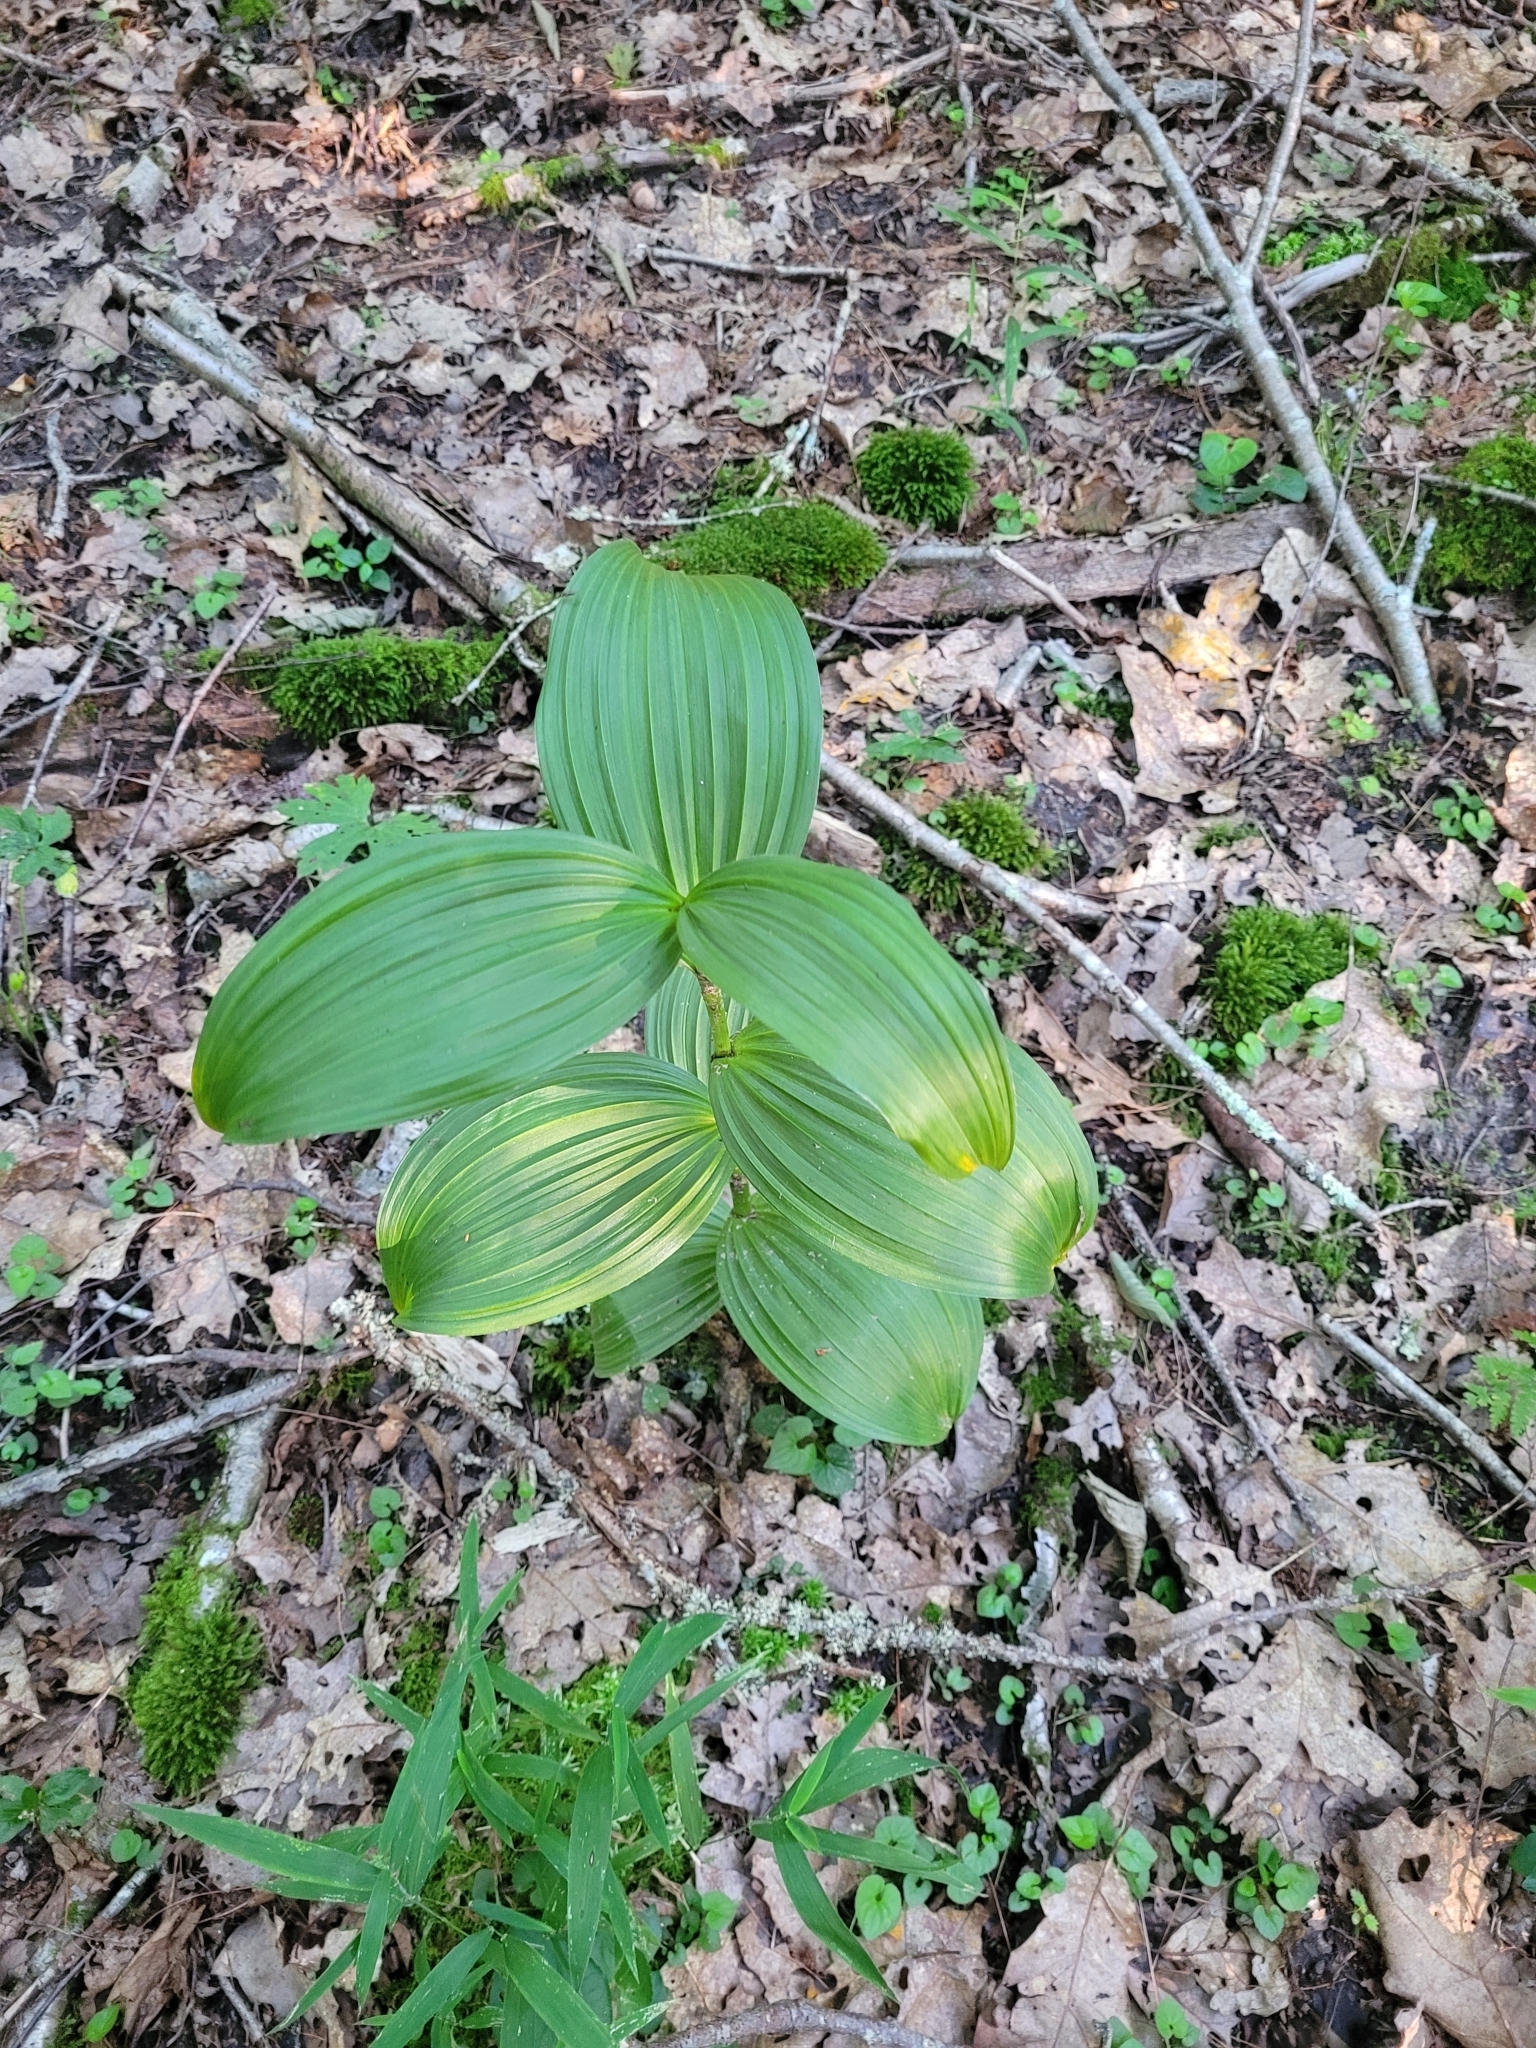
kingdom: Plantae
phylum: Tracheophyta
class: Liliopsida
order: Liliales
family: Melanthiaceae
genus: Veratrum
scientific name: Veratrum viride
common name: American false hellebore
